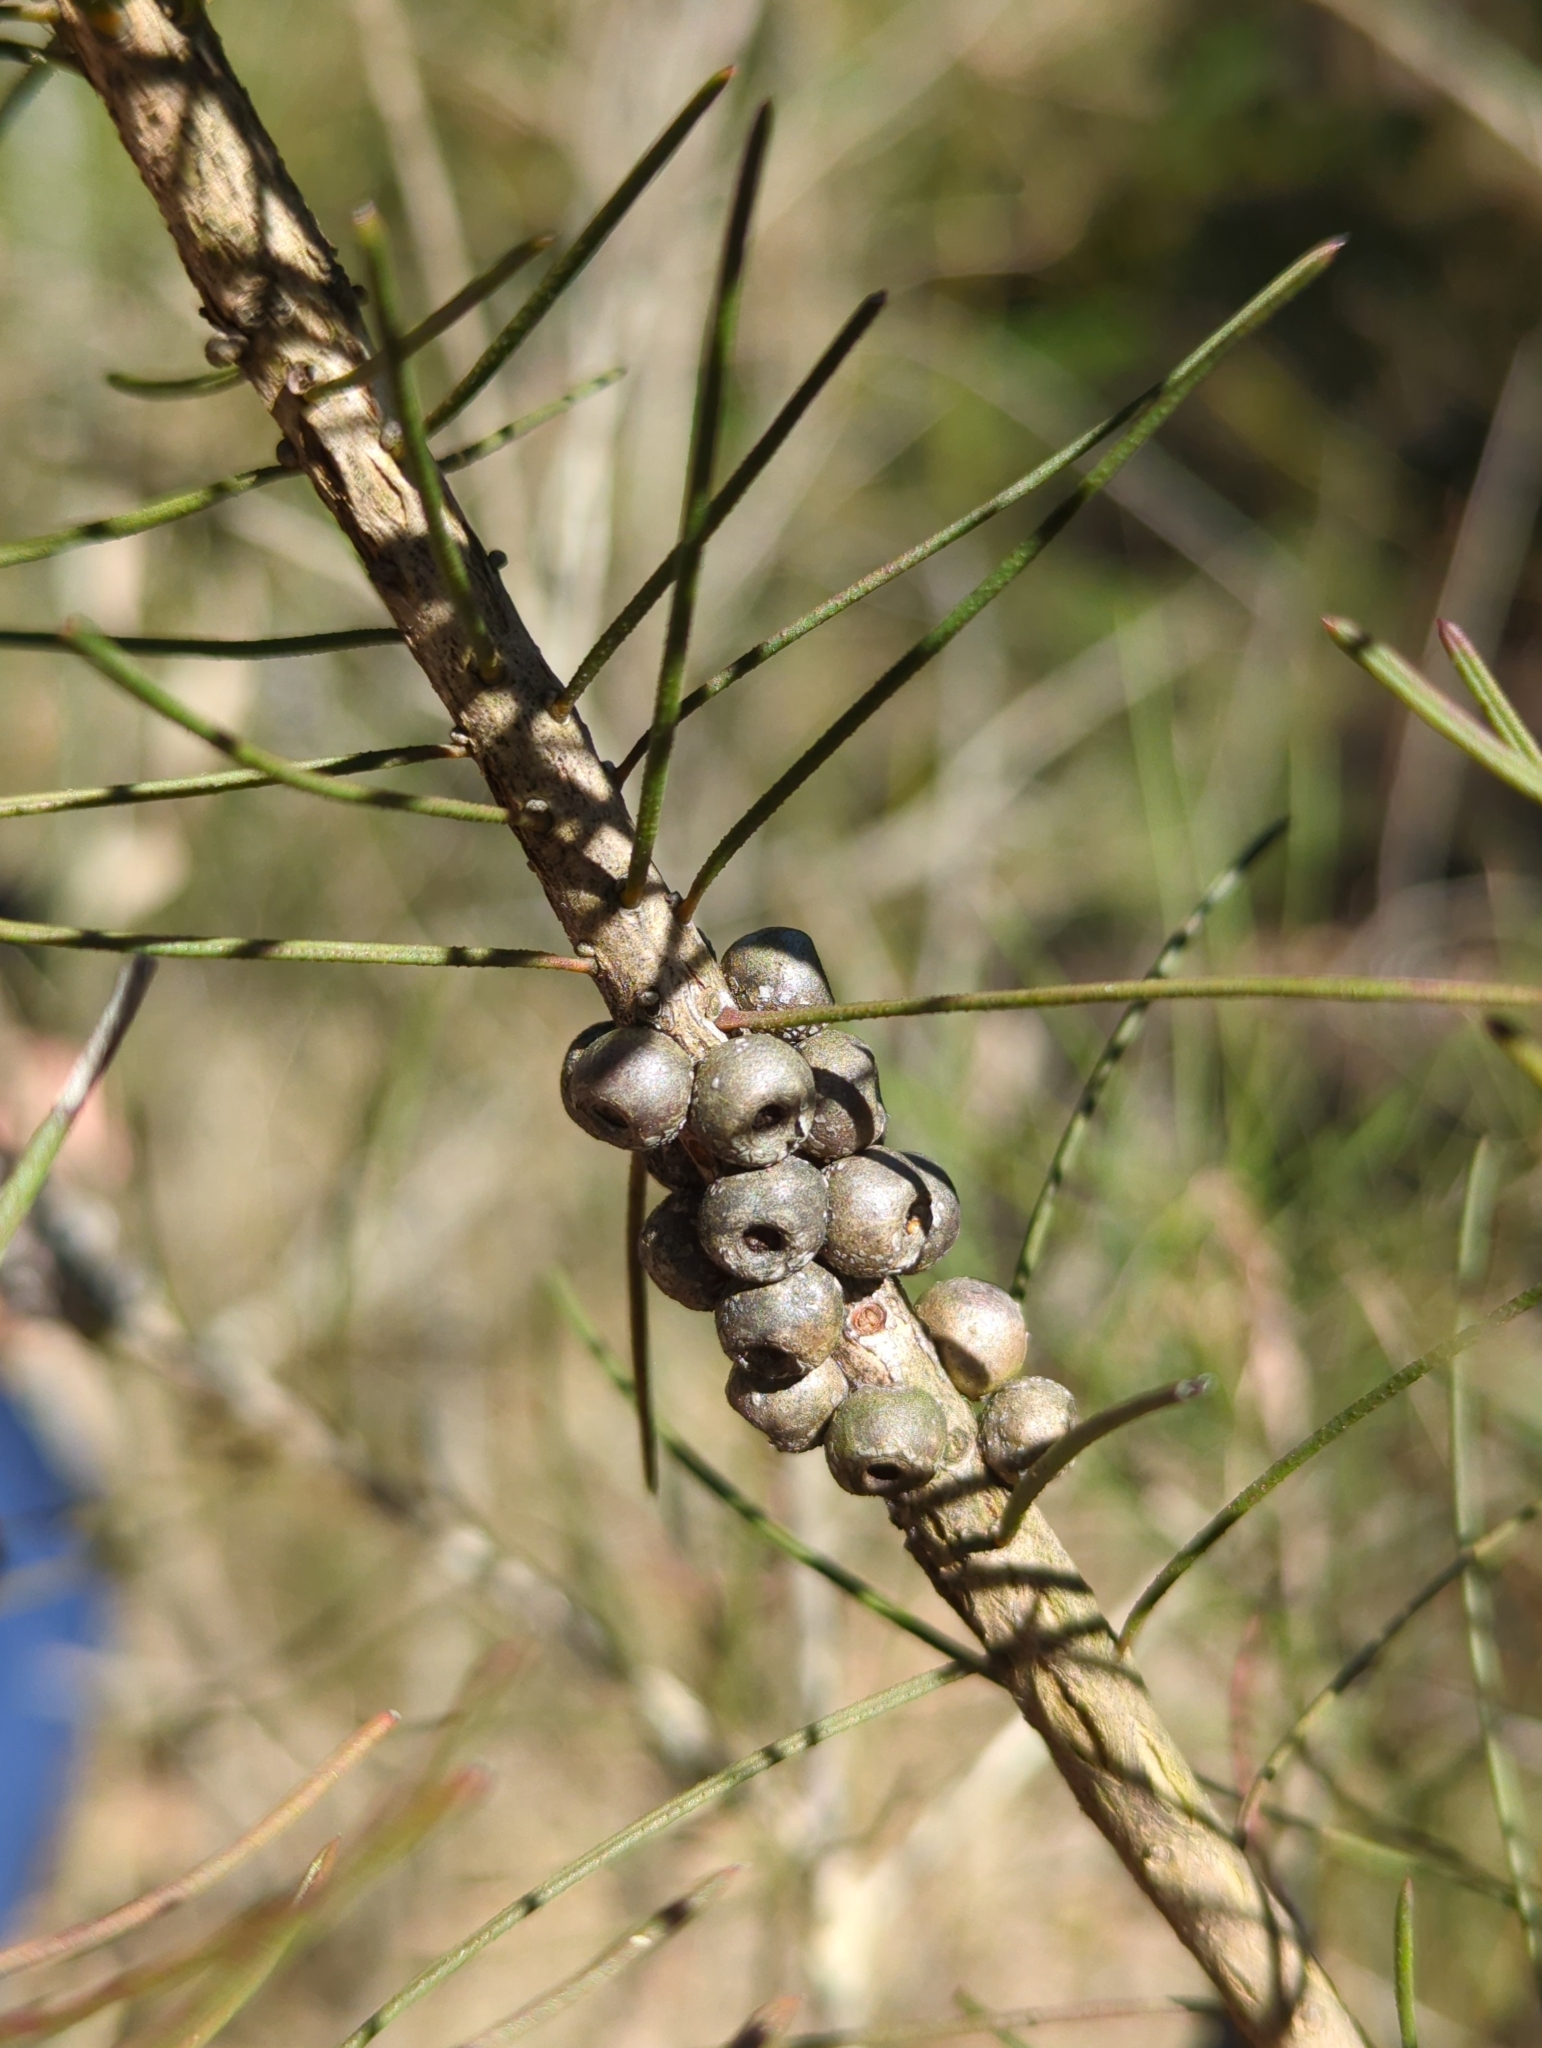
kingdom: Plantae
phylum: Tracheophyta
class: Magnoliopsida
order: Myrtales
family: Myrtaceae
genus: Callistemon
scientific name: Callistemon linearis
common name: Narrow-leaf bottlebrush
